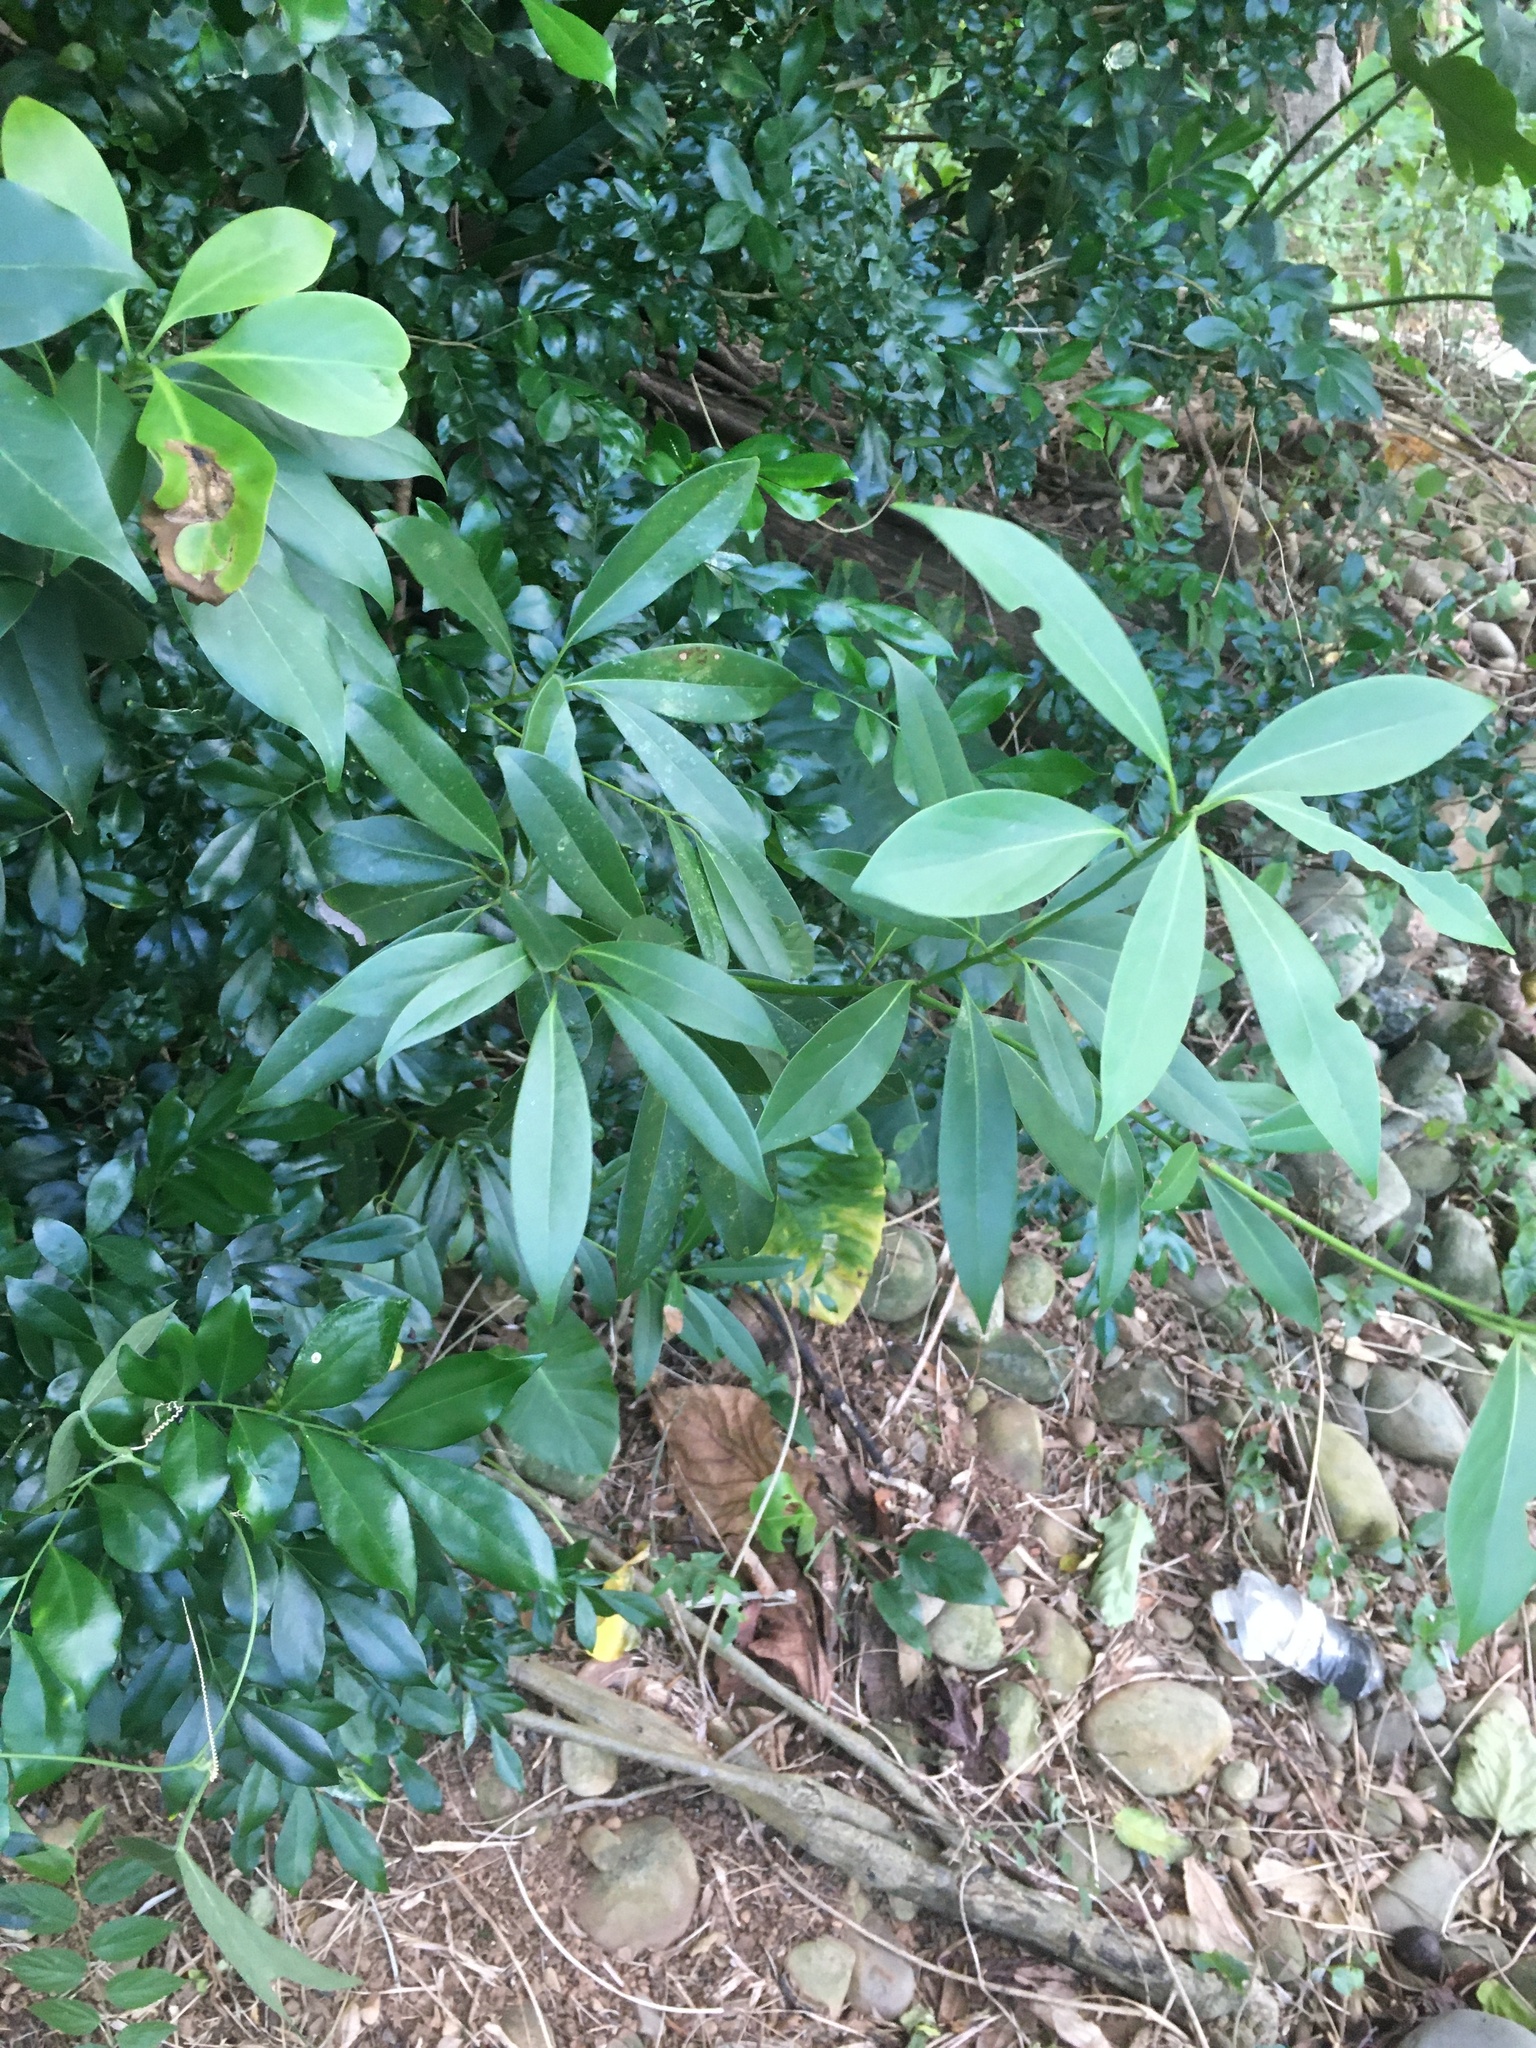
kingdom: Plantae
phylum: Tracheophyta
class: Magnoliopsida
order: Ericales
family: Theaceae
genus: Polyspora
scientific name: Polyspora axillaris
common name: Fried egg tree
